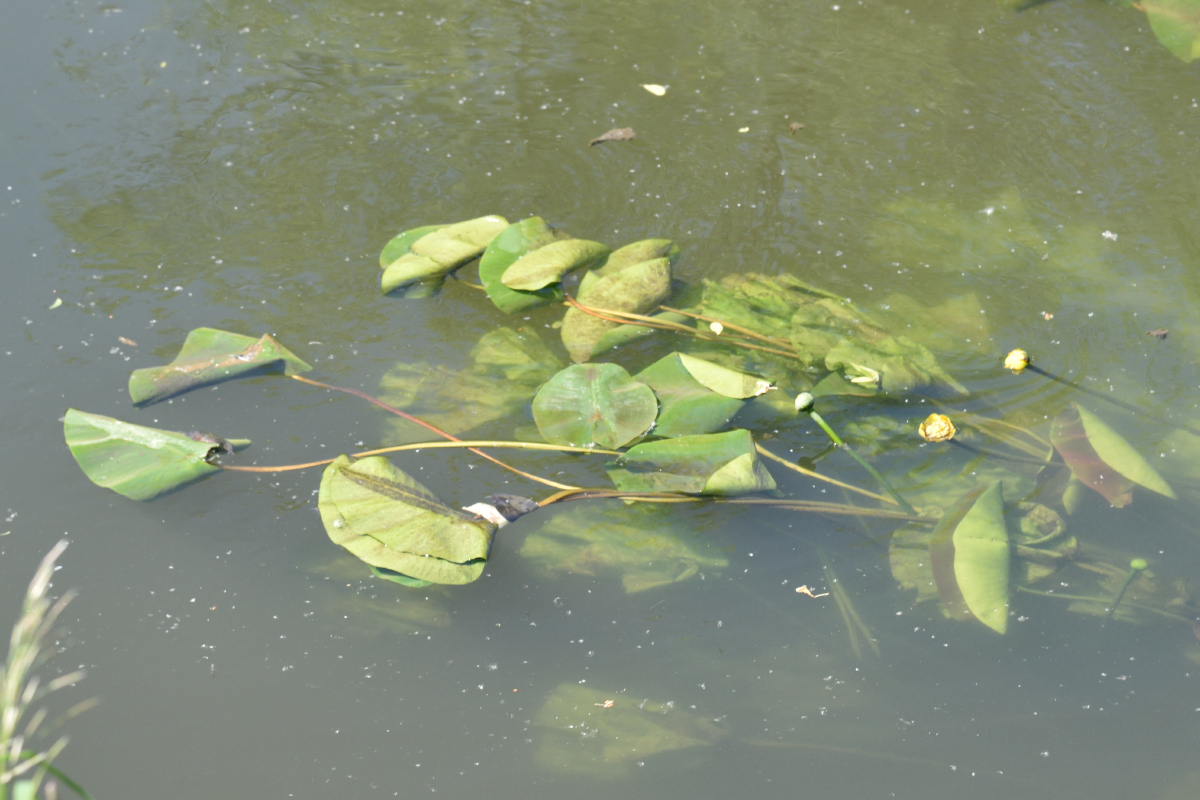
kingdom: Plantae
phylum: Tracheophyta
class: Magnoliopsida
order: Nymphaeales
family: Nymphaeaceae
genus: Nuphar
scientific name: Nuphar lutea
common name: Yellow water-lily
